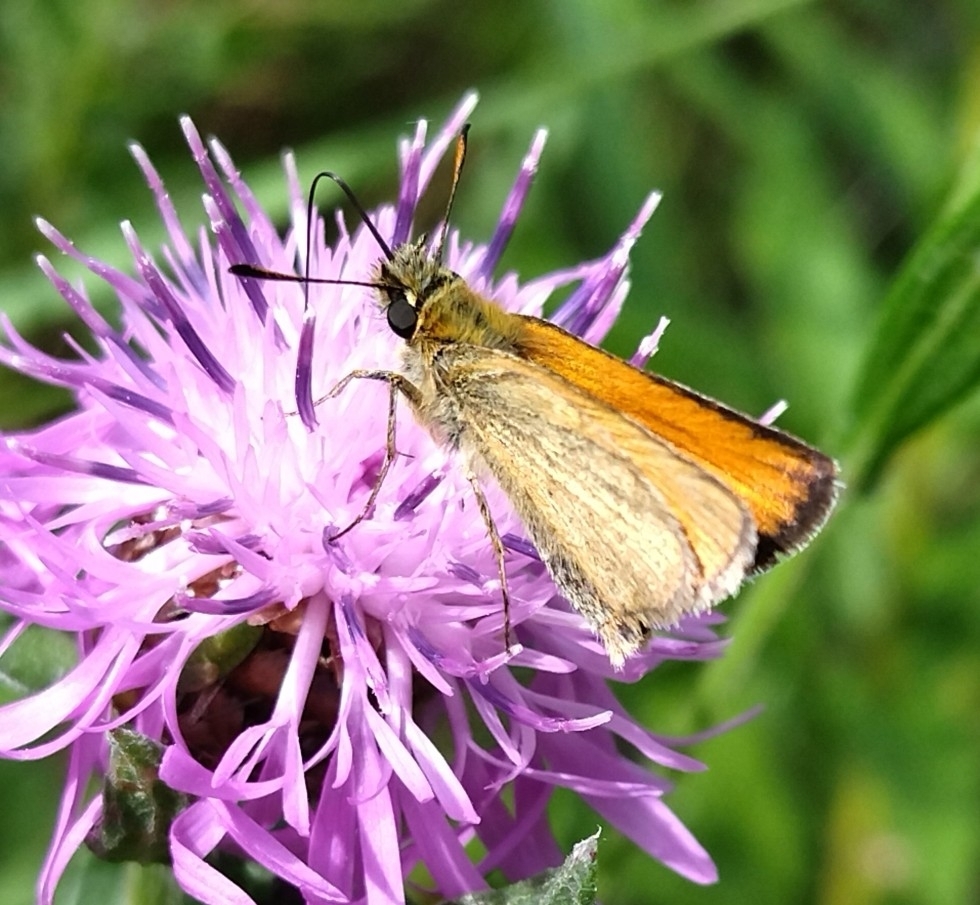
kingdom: Animalia
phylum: Arthropoda
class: Insecta
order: Lepidoptera
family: Hesperiidae
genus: Thymelicus
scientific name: Thymelicus lineola
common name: Essex skipper
